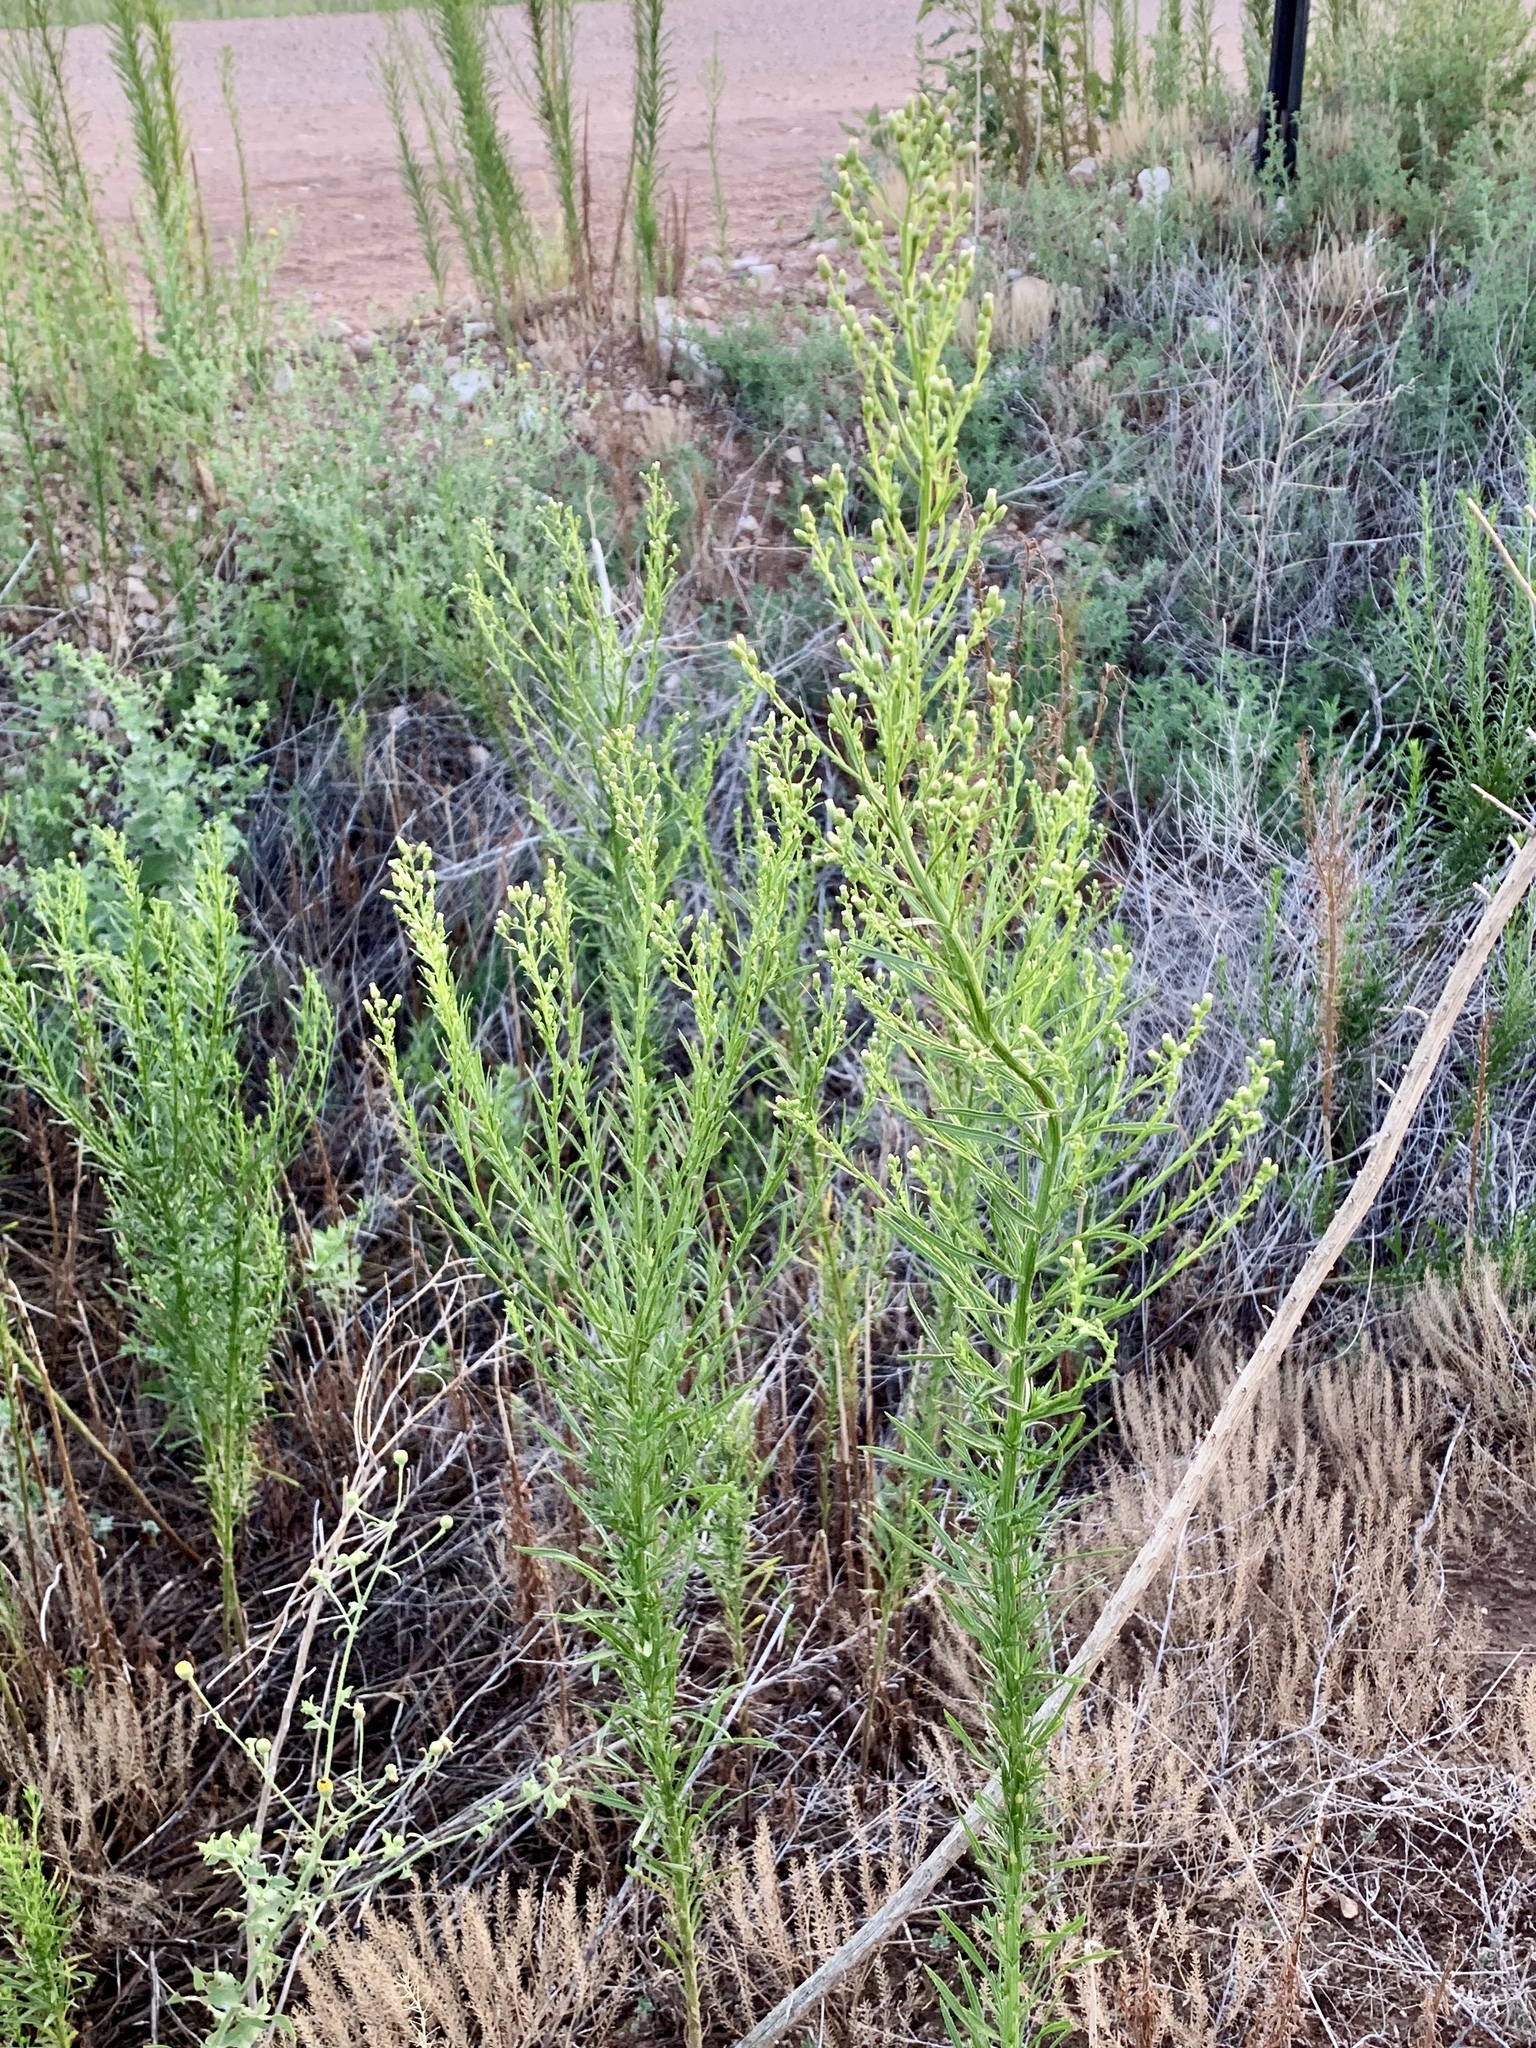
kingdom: Plantae
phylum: Tracheophyta
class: Magnoliopsida
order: Asterales
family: Asteraceae
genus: Erigeron
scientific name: Erigeron canadensis
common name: Canadian fleabane
